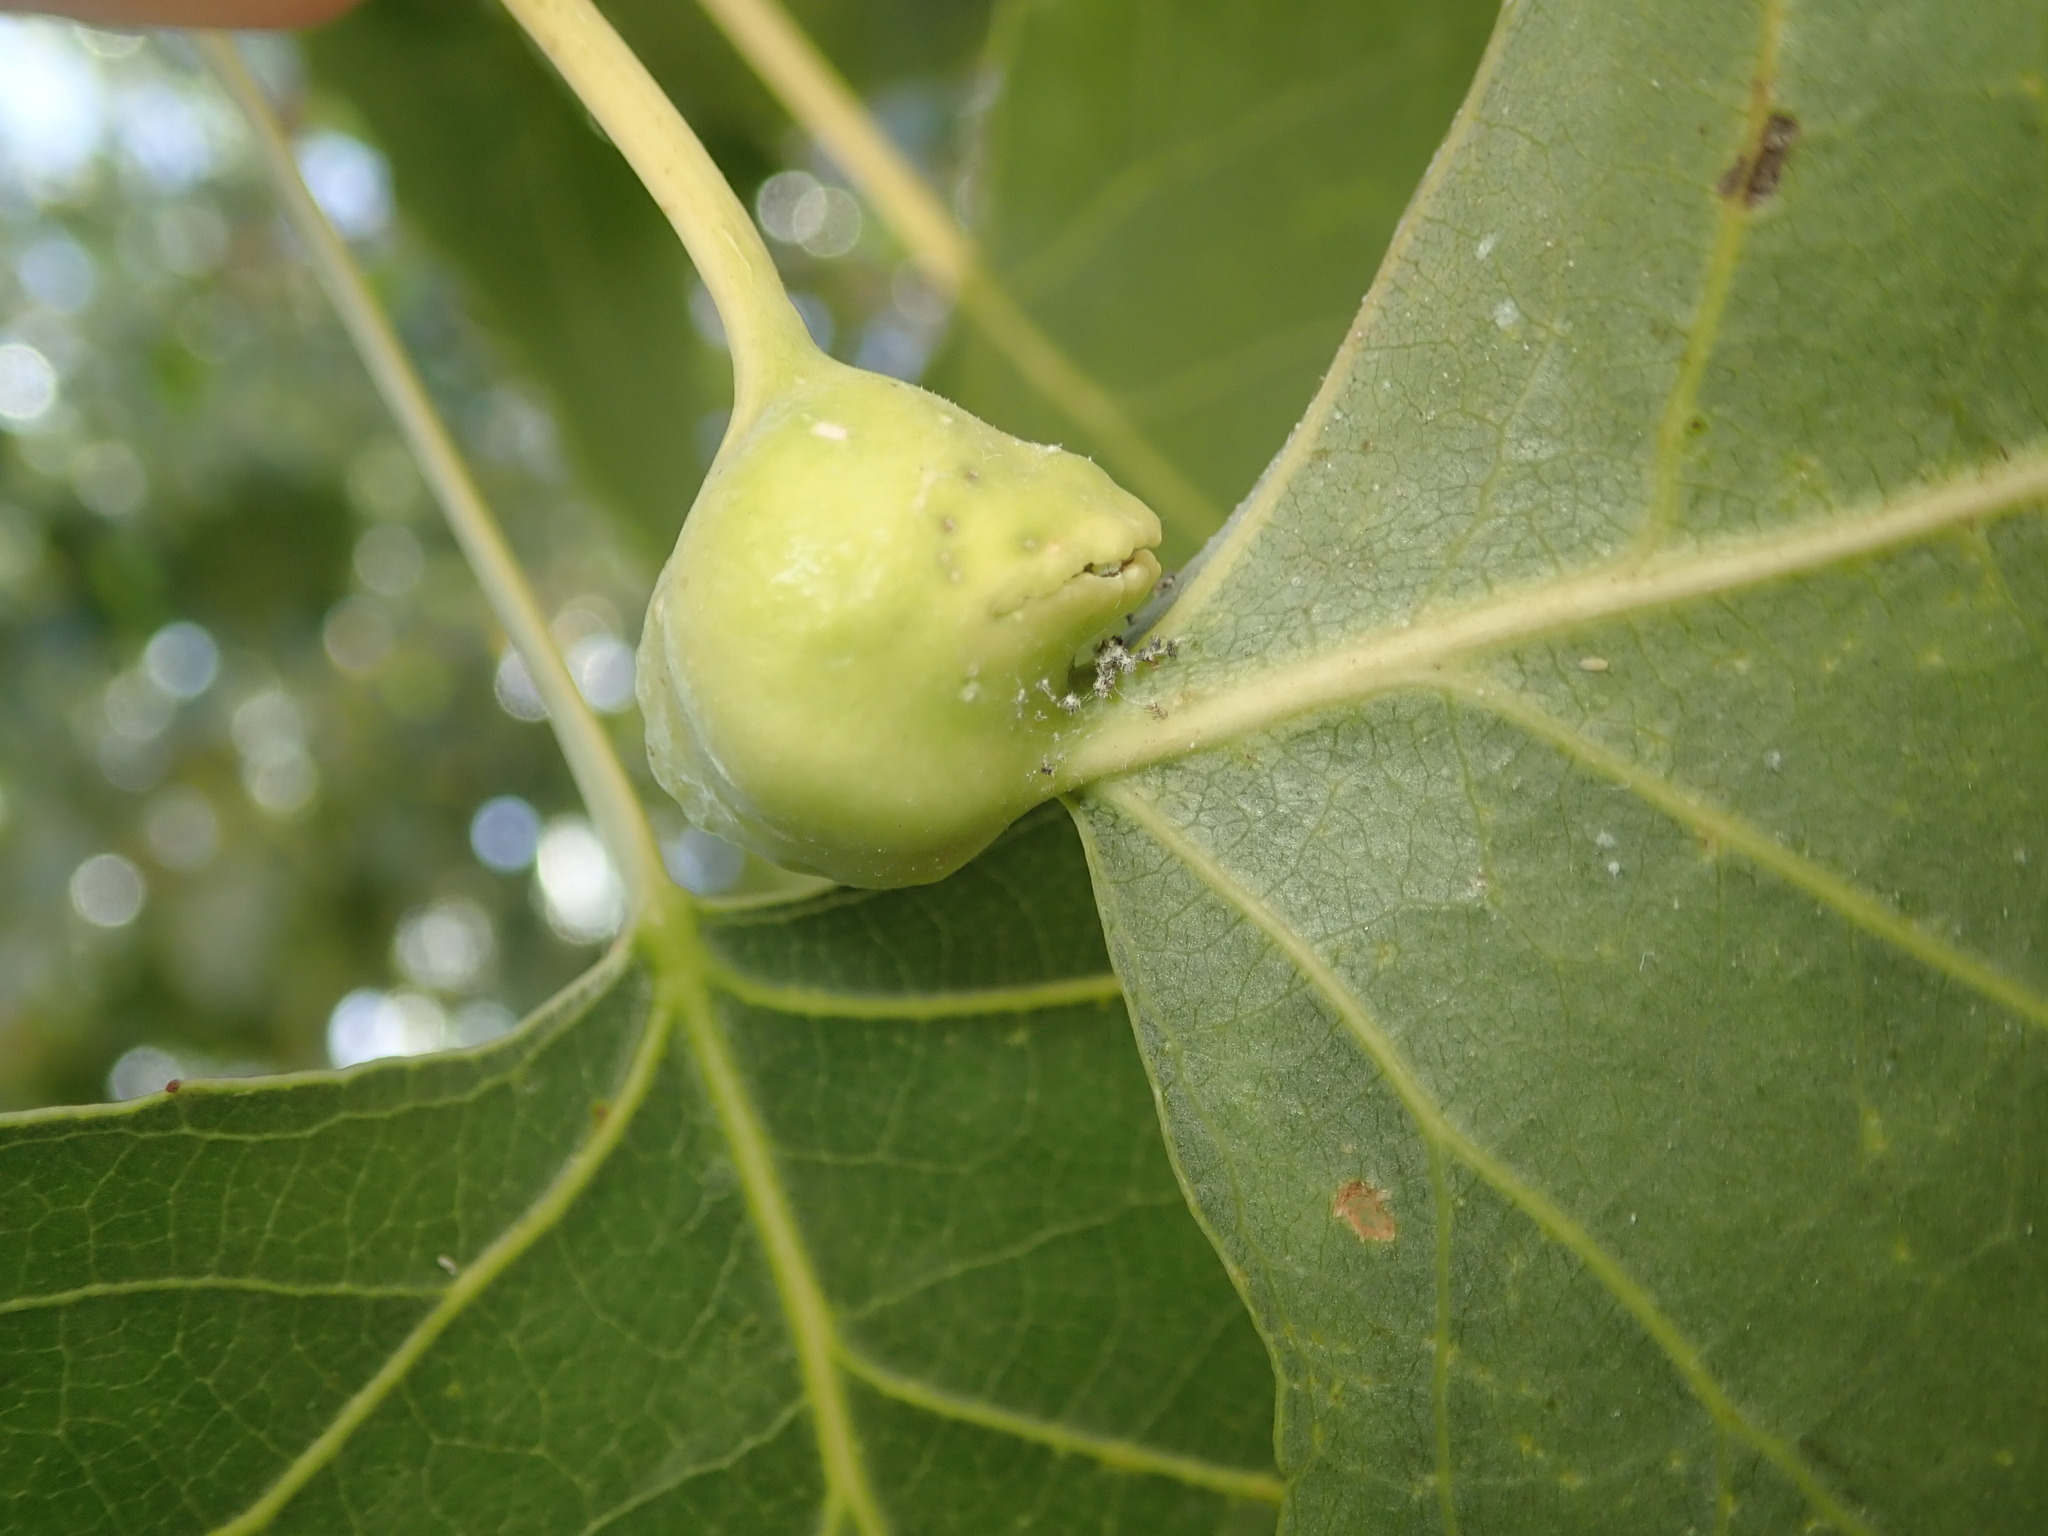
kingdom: Animalia
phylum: Arthropoda
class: Insecta
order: Hemiptera
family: Aphididae
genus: Pemphigus
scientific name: Pemphigus obesinymphae
